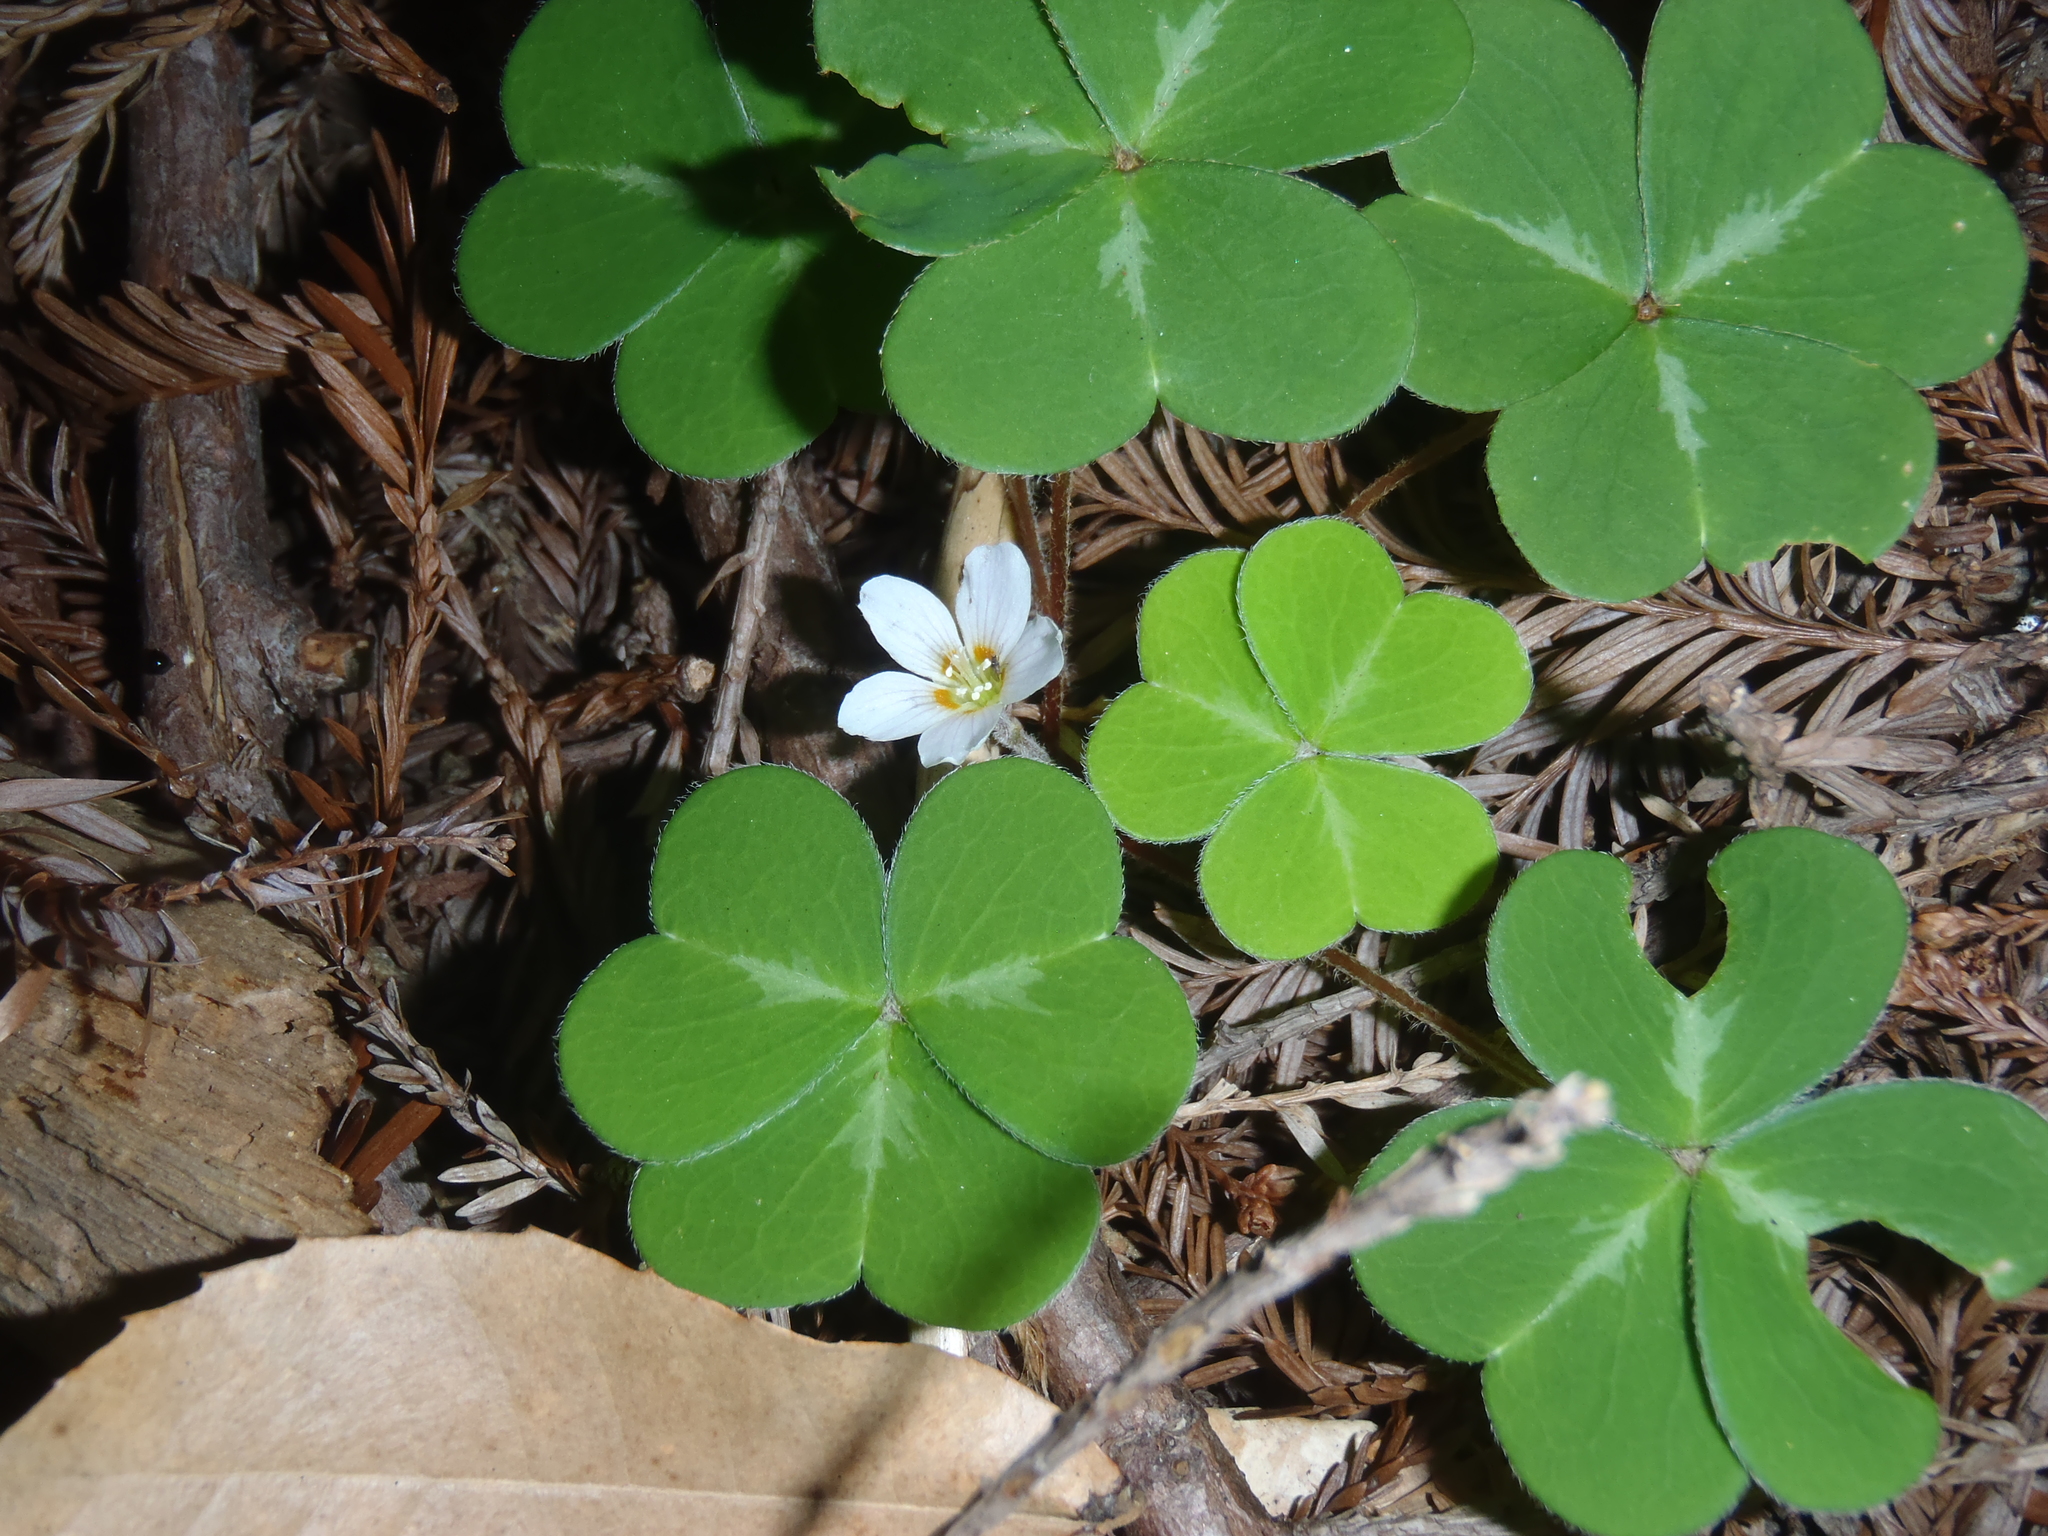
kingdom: Plantae
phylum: Tracheophyta
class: Magnoliopsida
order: Oxalidales
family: Oxalidaceae
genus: Oxalis
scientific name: Oxalis oregana
